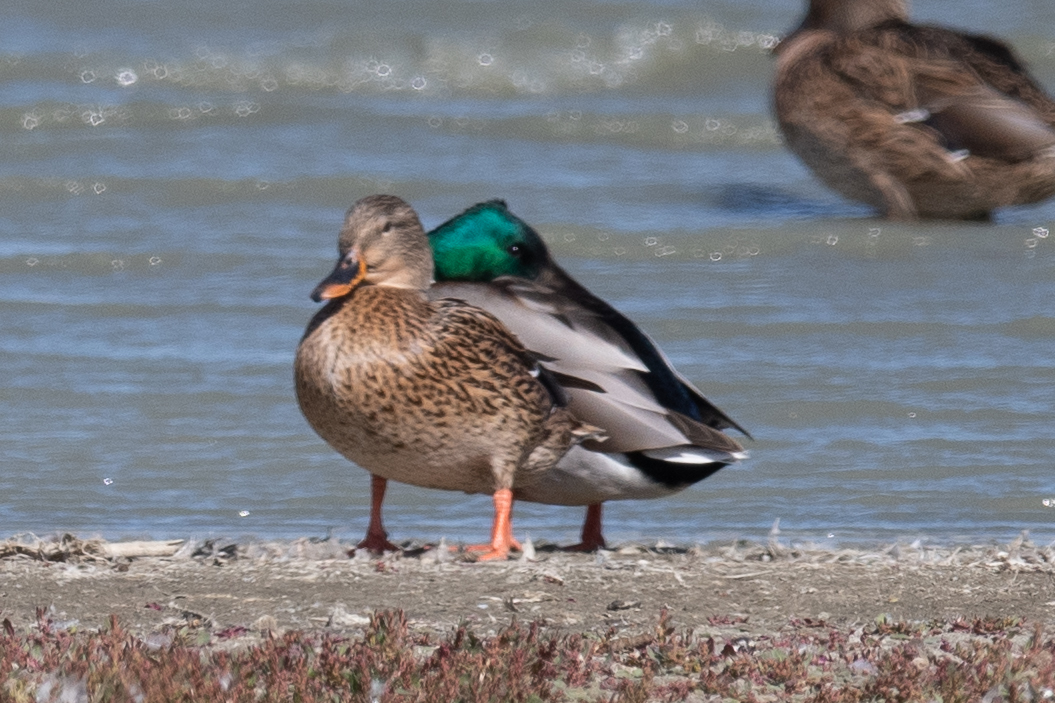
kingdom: Animalia
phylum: Chordata
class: Aves
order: Anseriformes
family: Anatidae
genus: Anas
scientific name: Anas platyrhynchos
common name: Mallard
